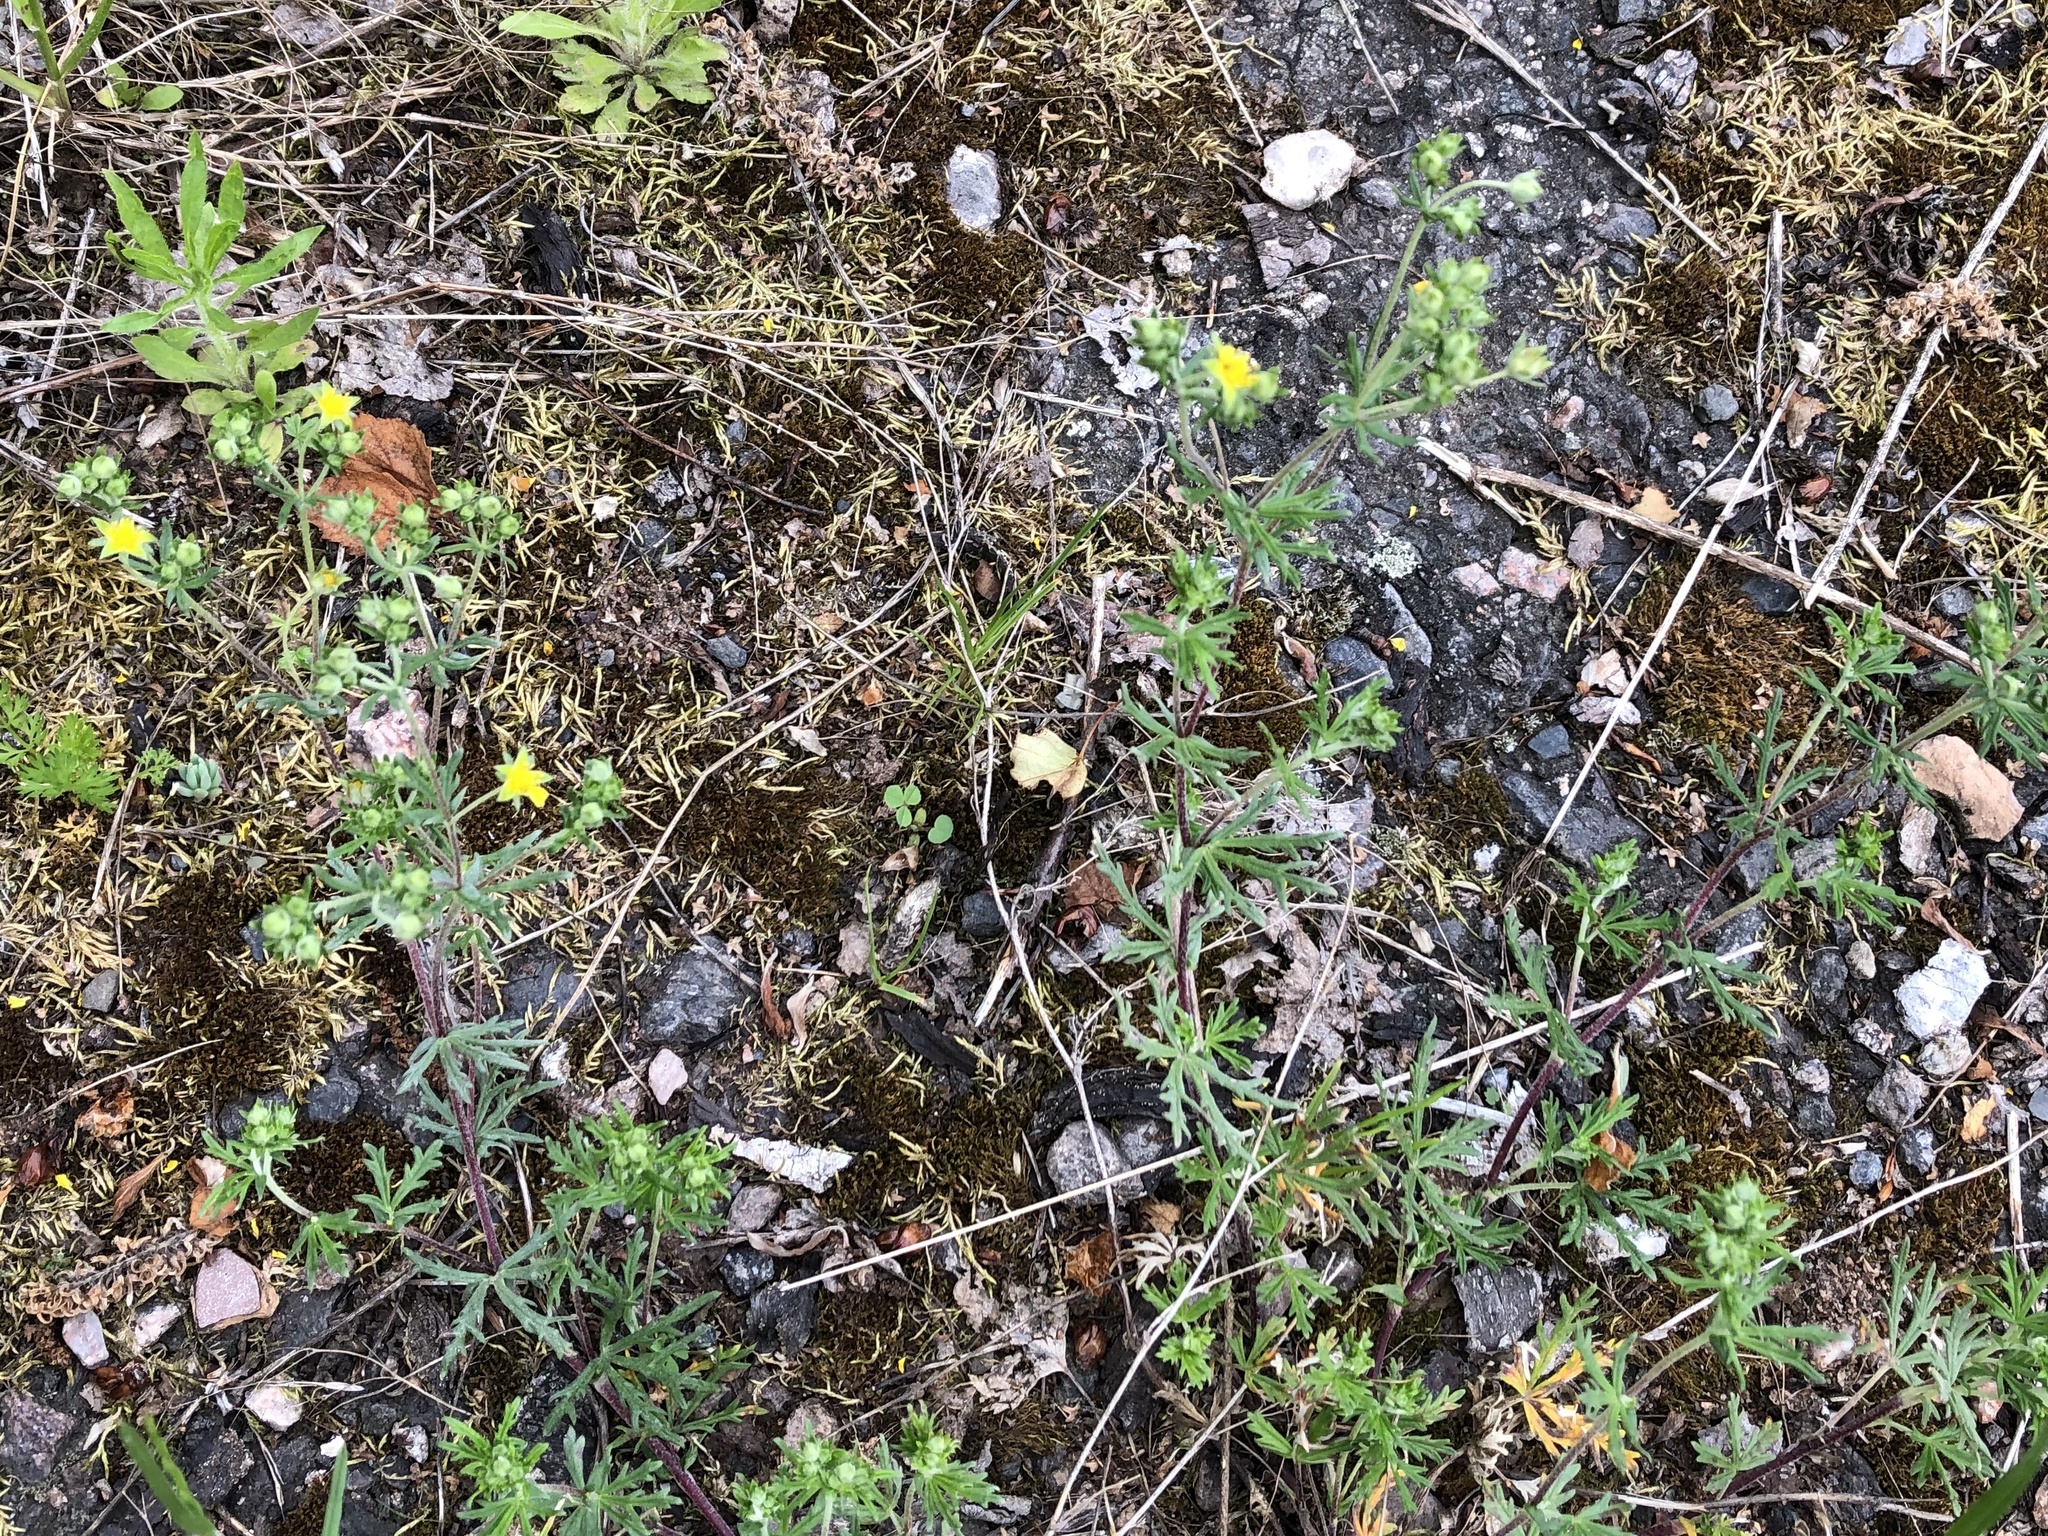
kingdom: Plantae
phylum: Tracheophyta
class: Magnoliopsida
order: Rosales
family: Rosaceae
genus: Potentilla
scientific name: Potentilla argentea
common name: Hoary cinquefoil
